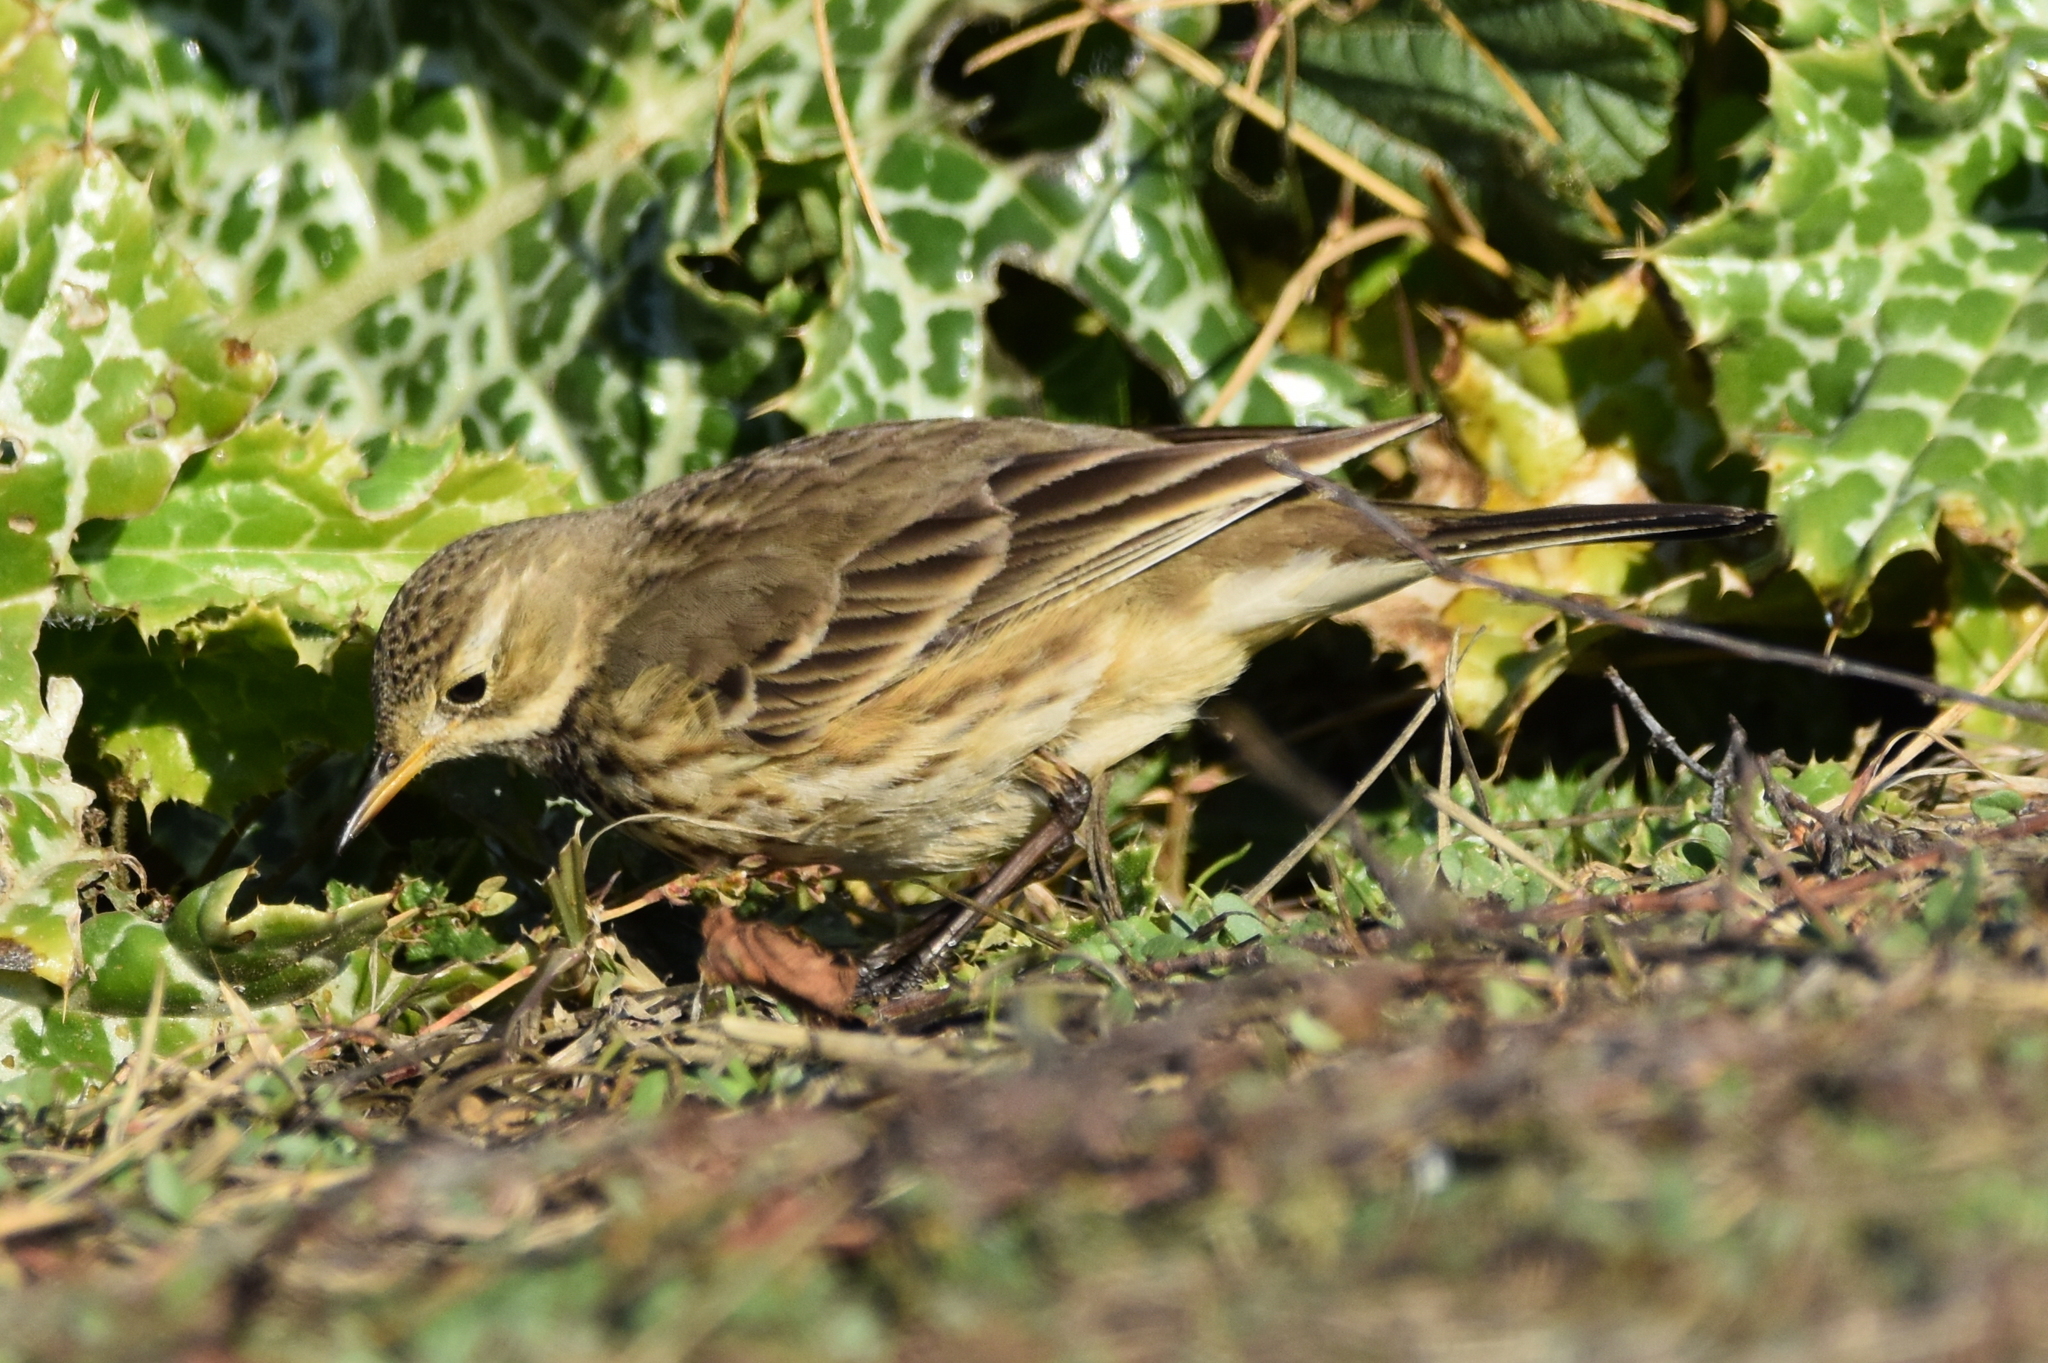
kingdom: Animalia
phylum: Chordata
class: Aves
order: Passeriformes
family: Motacillidae
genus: Anthus
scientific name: Anthus rubescens
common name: Buff-bellied pipit
